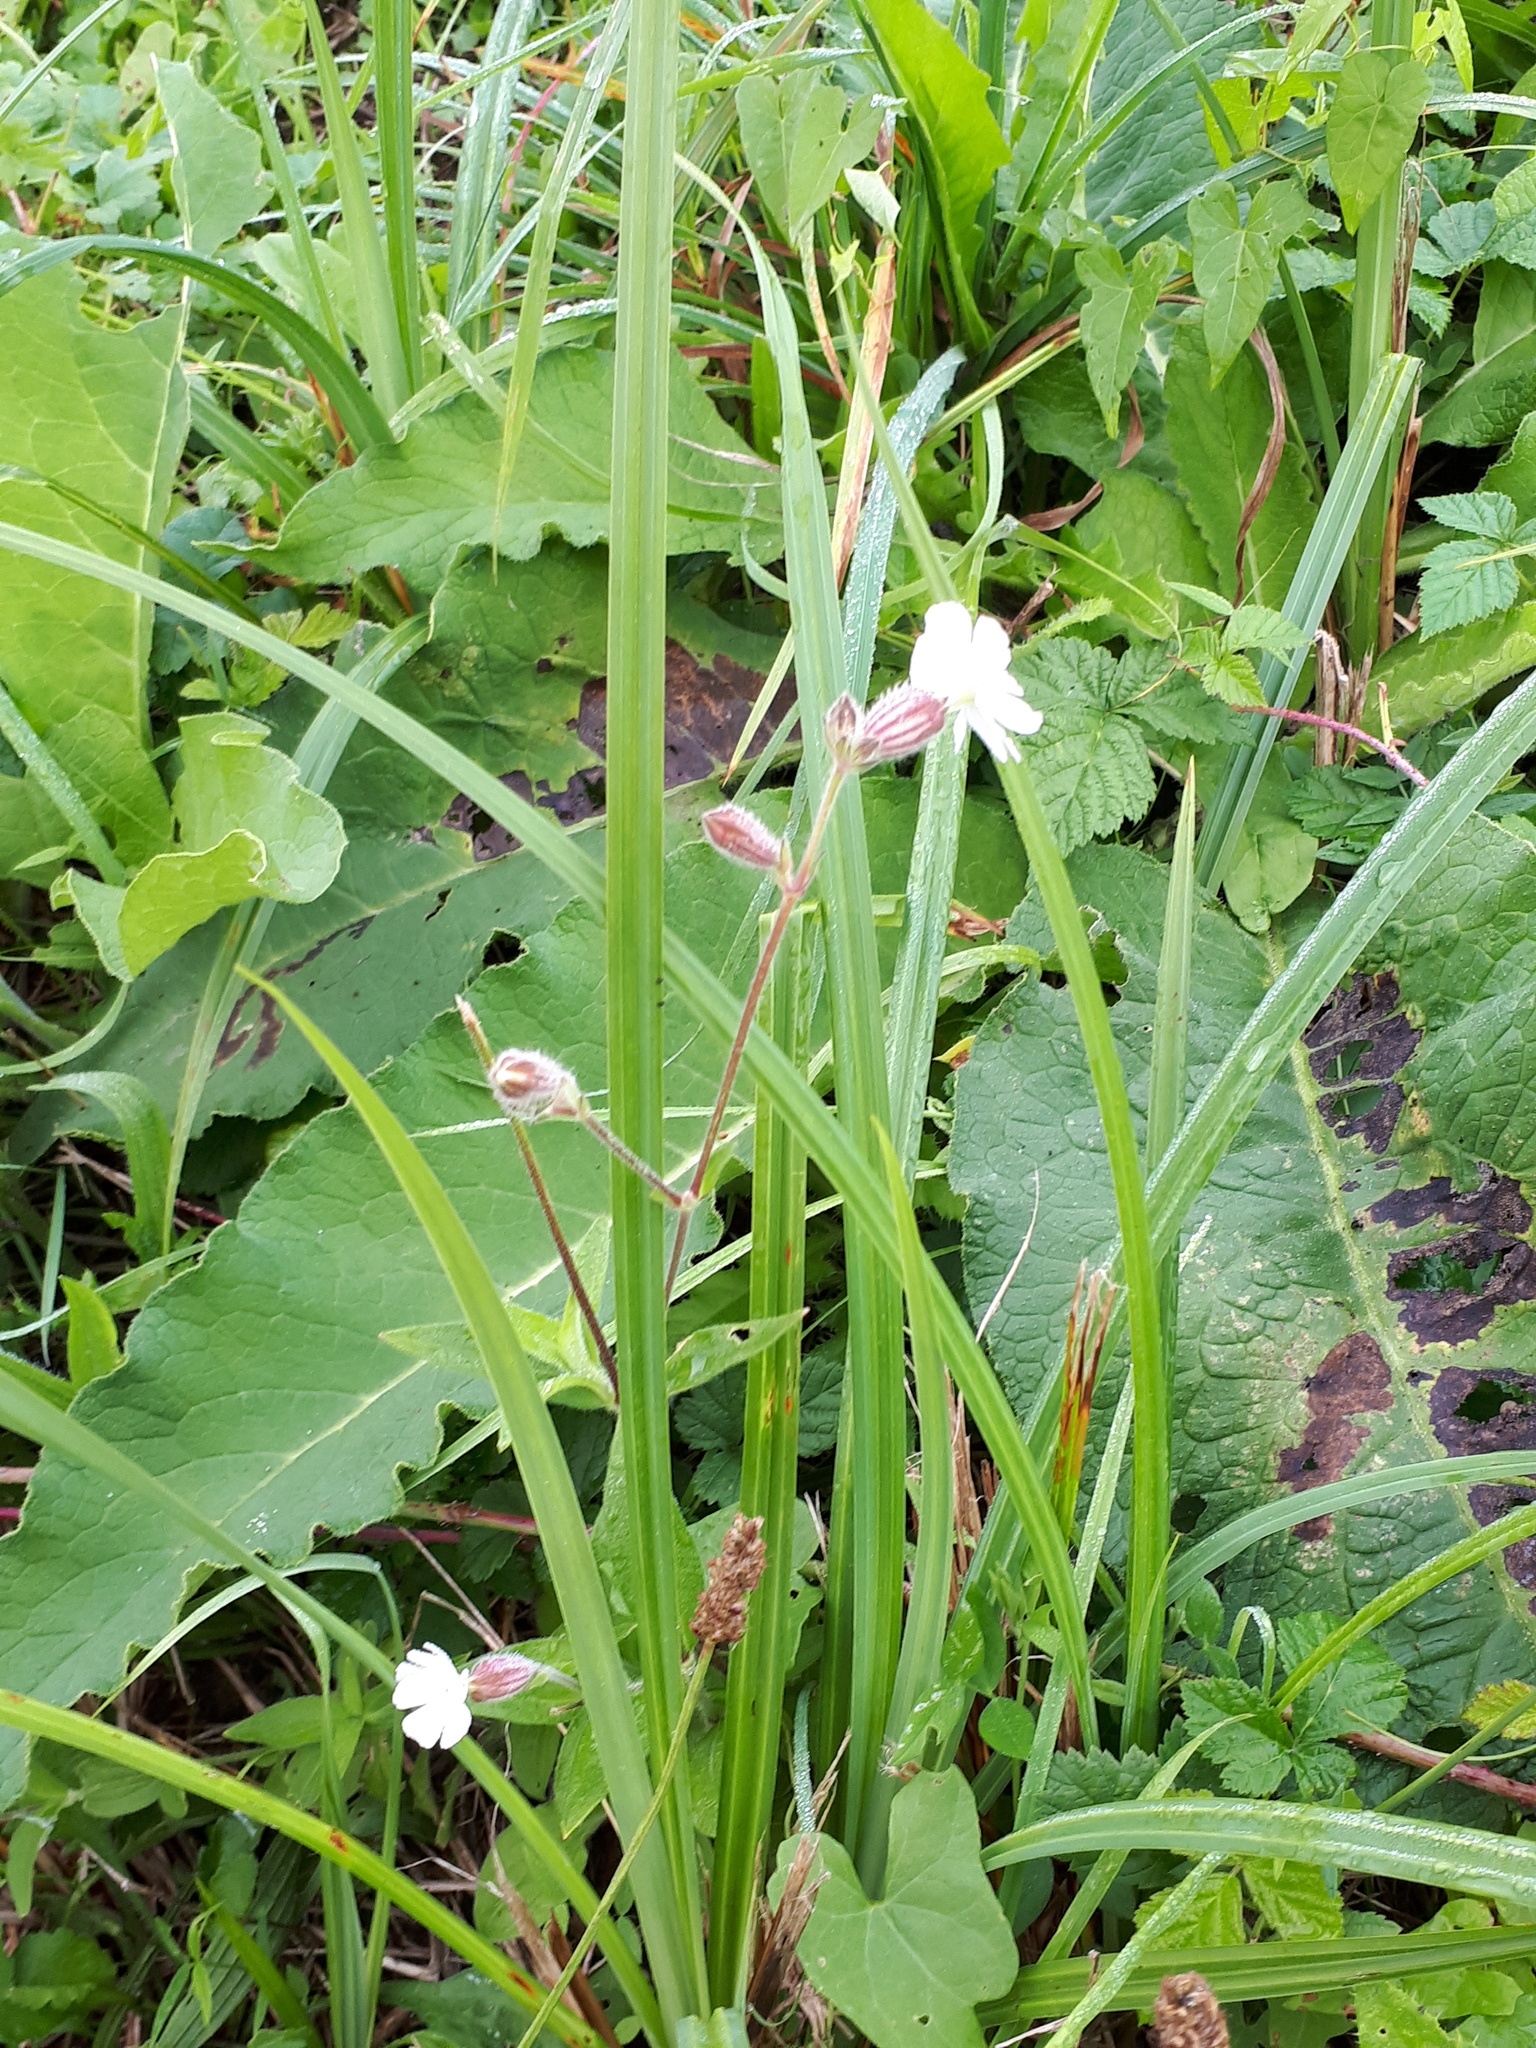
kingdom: Plantae
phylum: Tracheophyta
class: Magnoliopsida
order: Caryophyllales
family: Caryophyllaceae
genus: Silene
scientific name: Silene latifolia
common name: White campion
